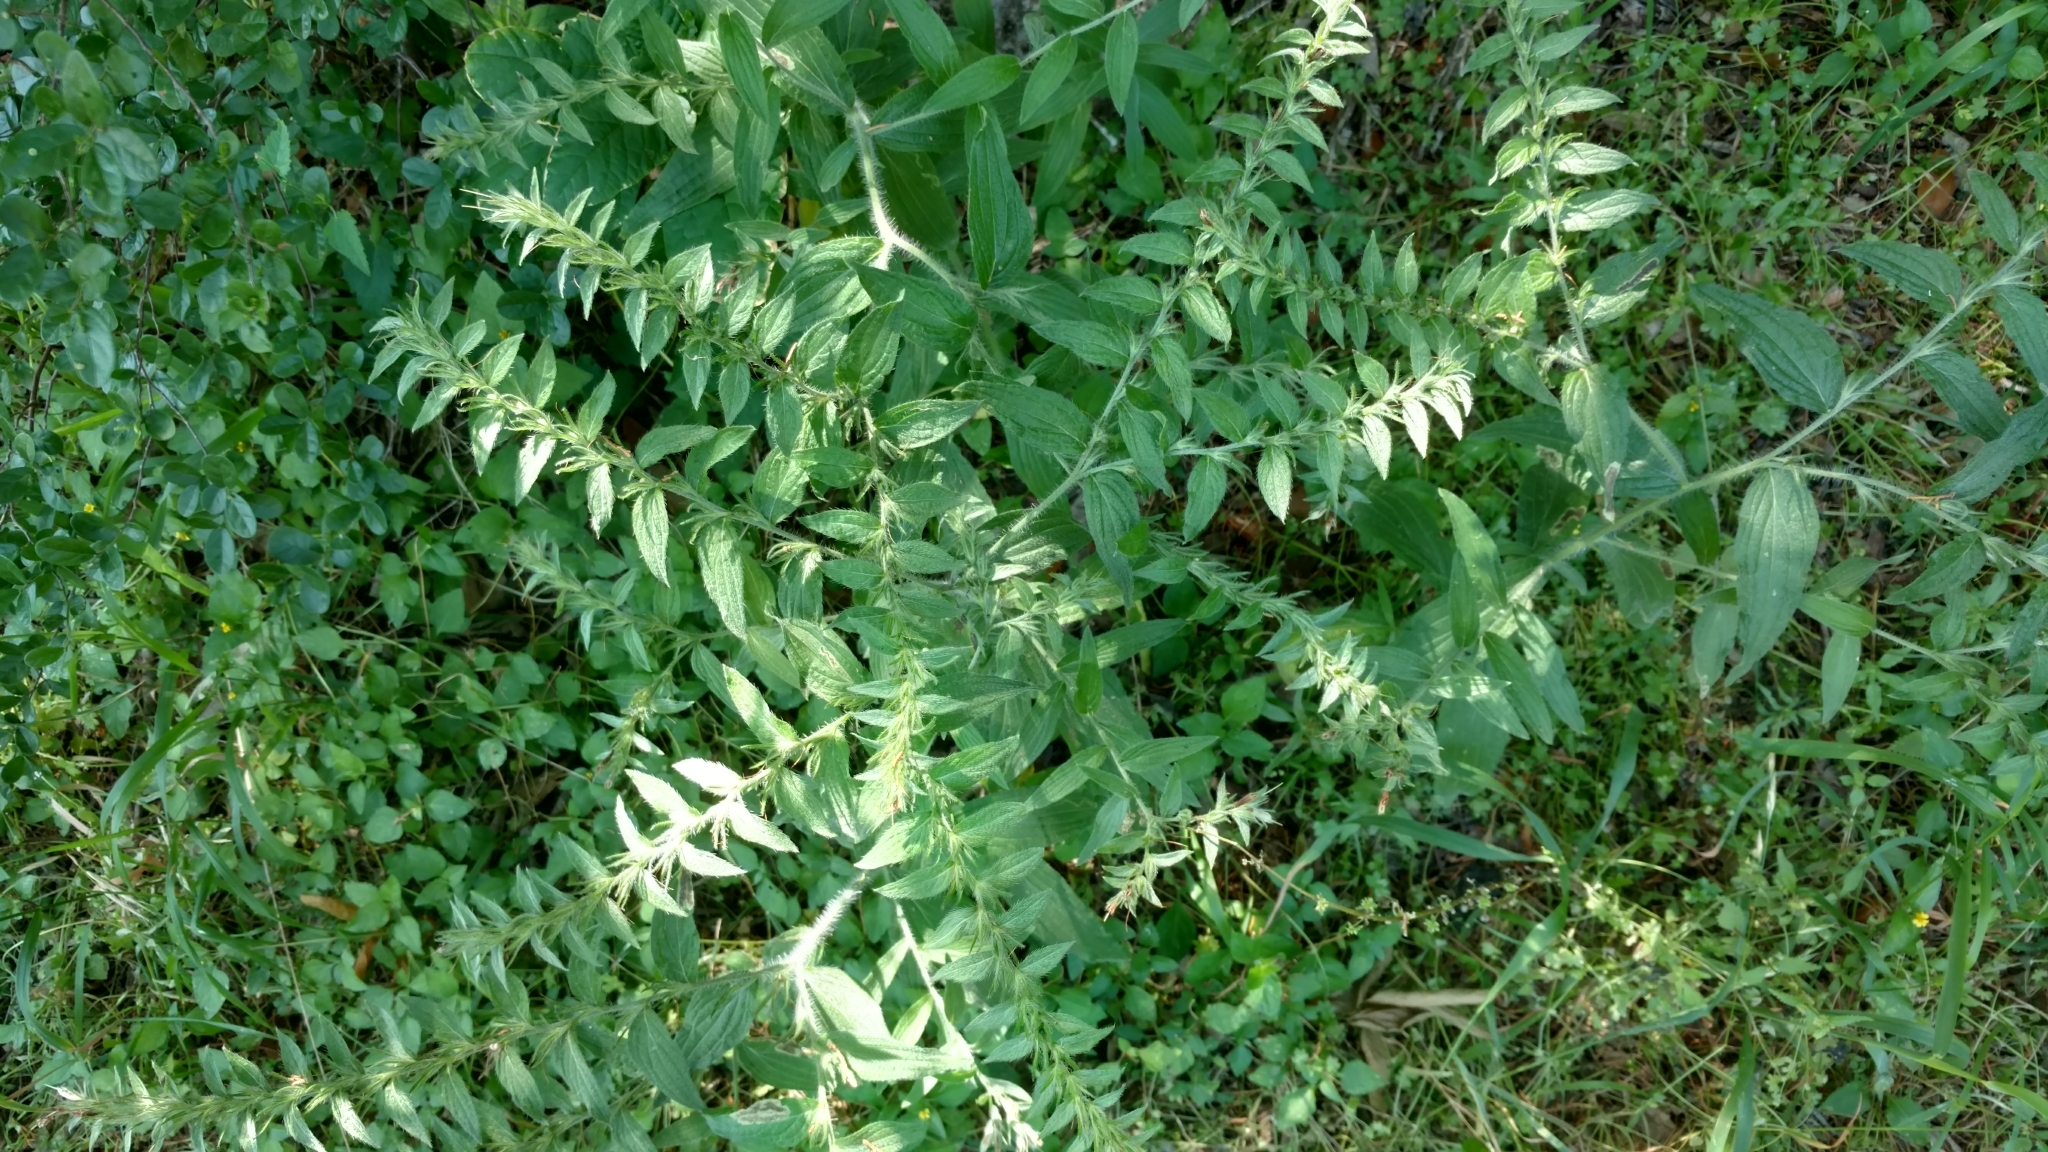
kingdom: Plantae
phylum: Tracheophyta
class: Magnoliopsida
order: Boraginales
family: Boraginaceae
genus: Lithospermum
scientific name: Lithospermum caroliniense
